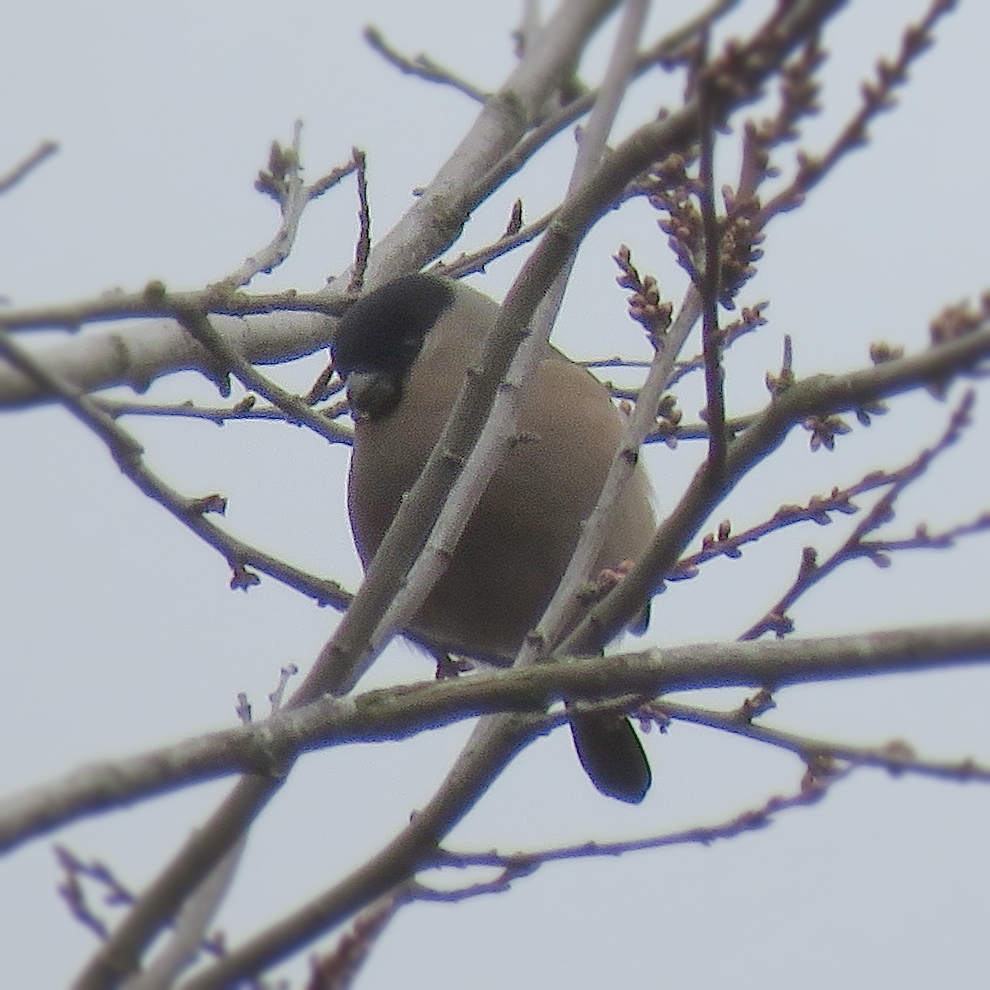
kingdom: Animalia
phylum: Chordata
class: Aves
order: Passeriformes
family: Fringillidae
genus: Pyrrhula
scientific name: Pyrrhula pyrrhula
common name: Eurasian bullfinch
